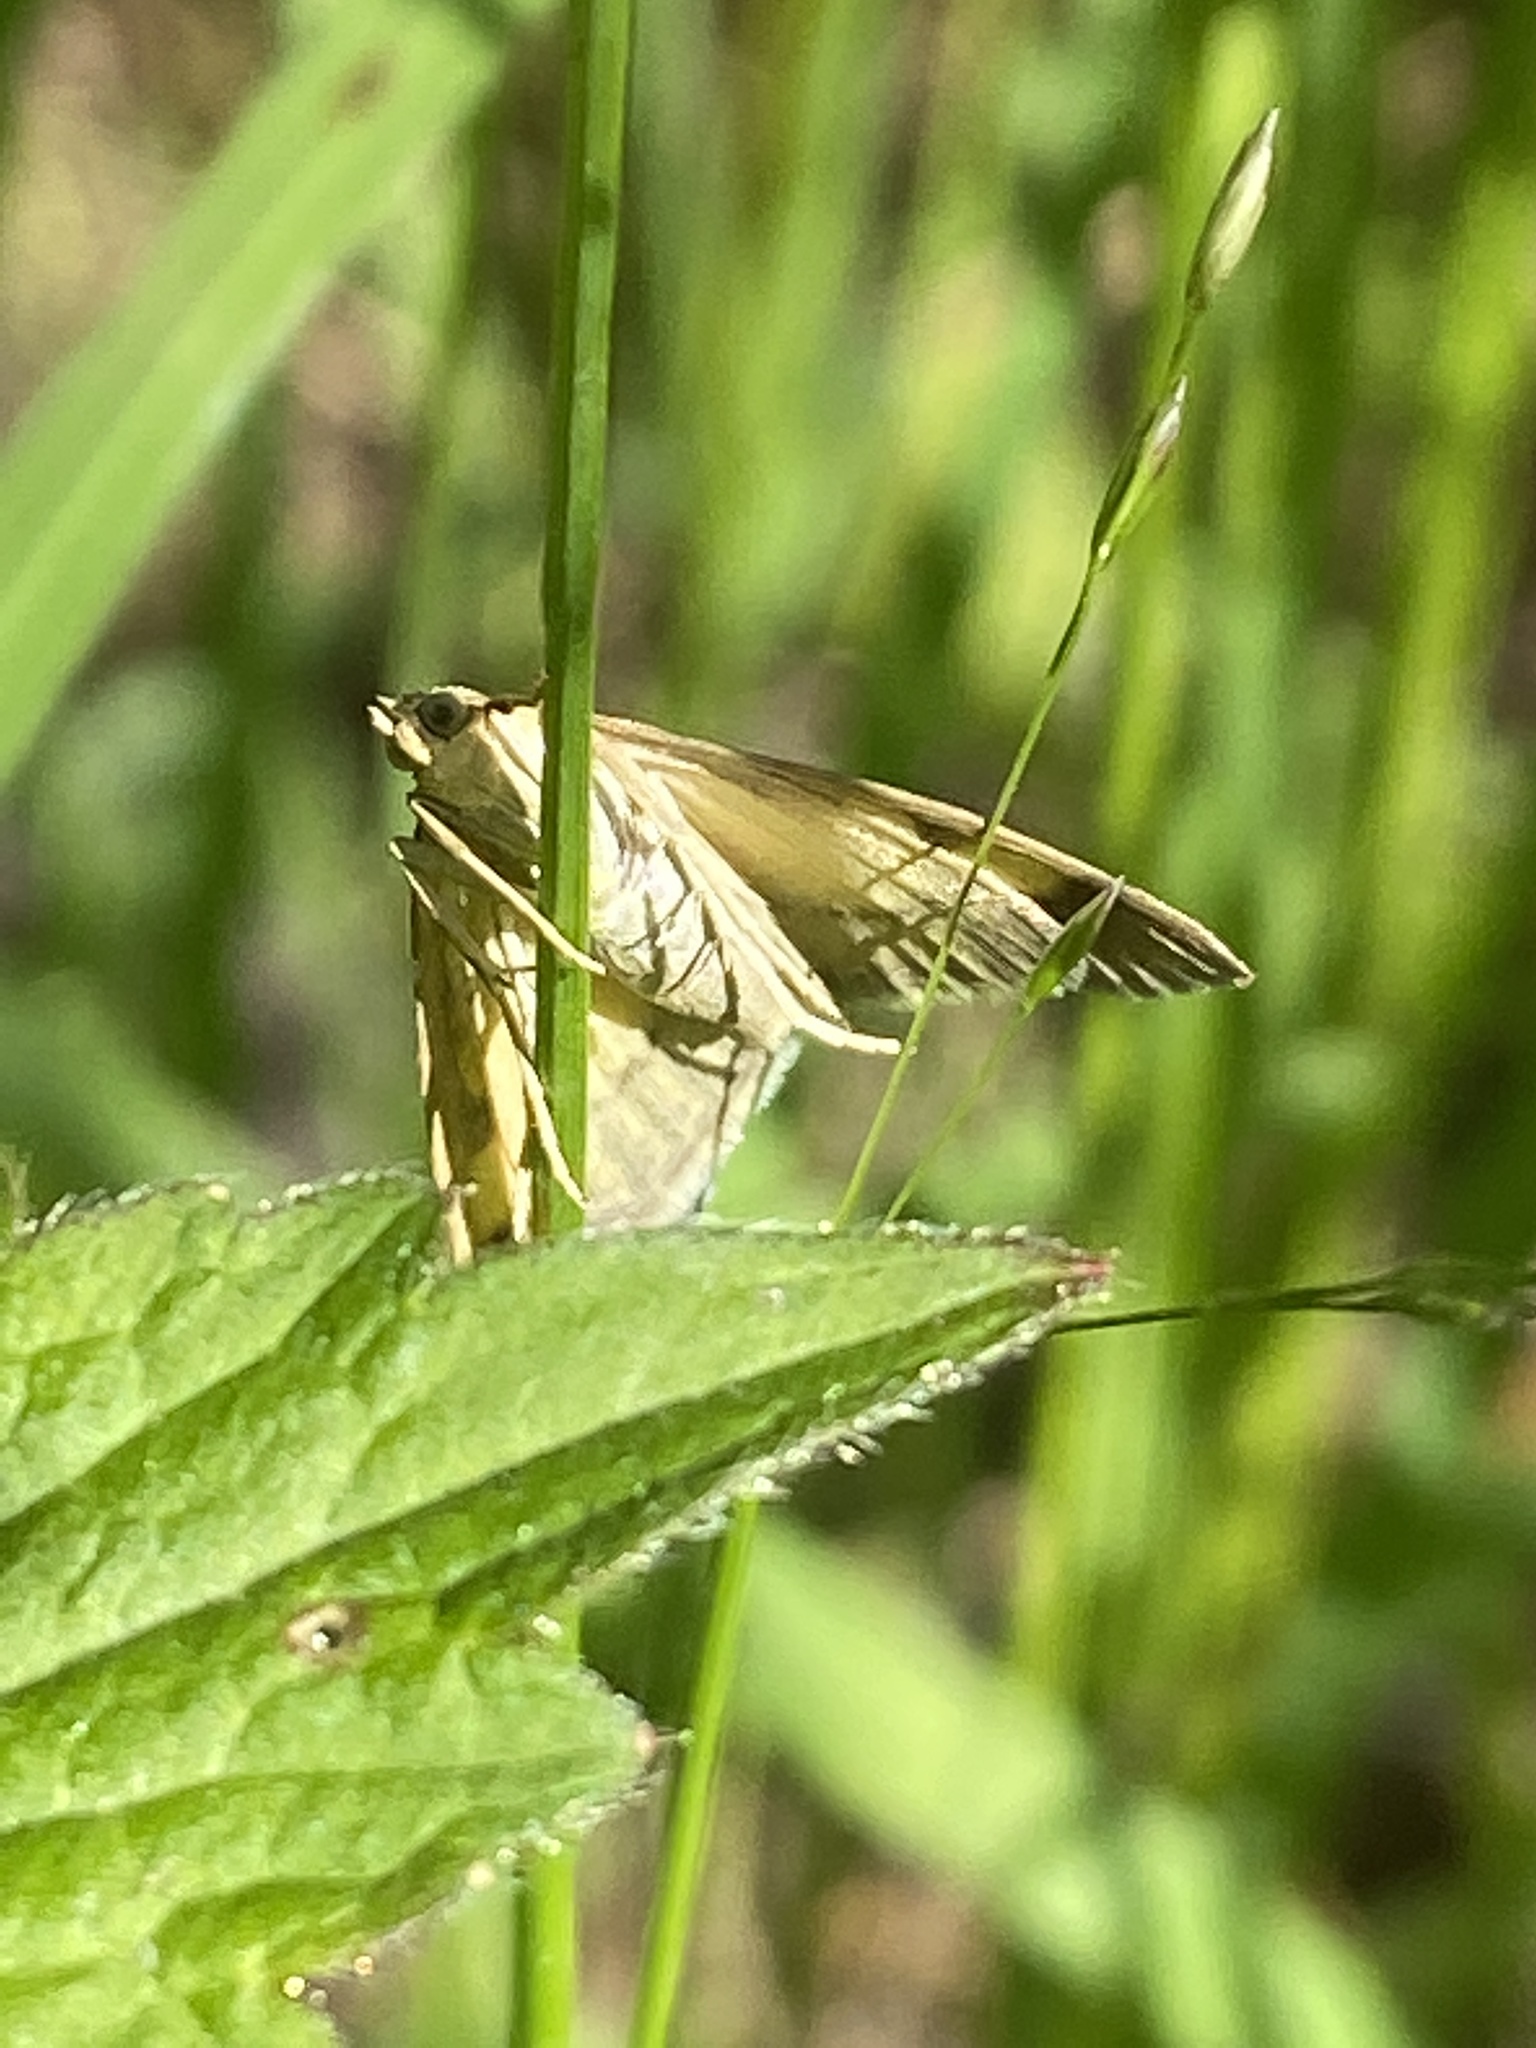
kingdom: Animalia
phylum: Arthropoda
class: Insecta
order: Lepidoptera
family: Crambidae
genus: Sitochroa
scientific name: Sitochroa verticalis
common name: Lesser pearl
